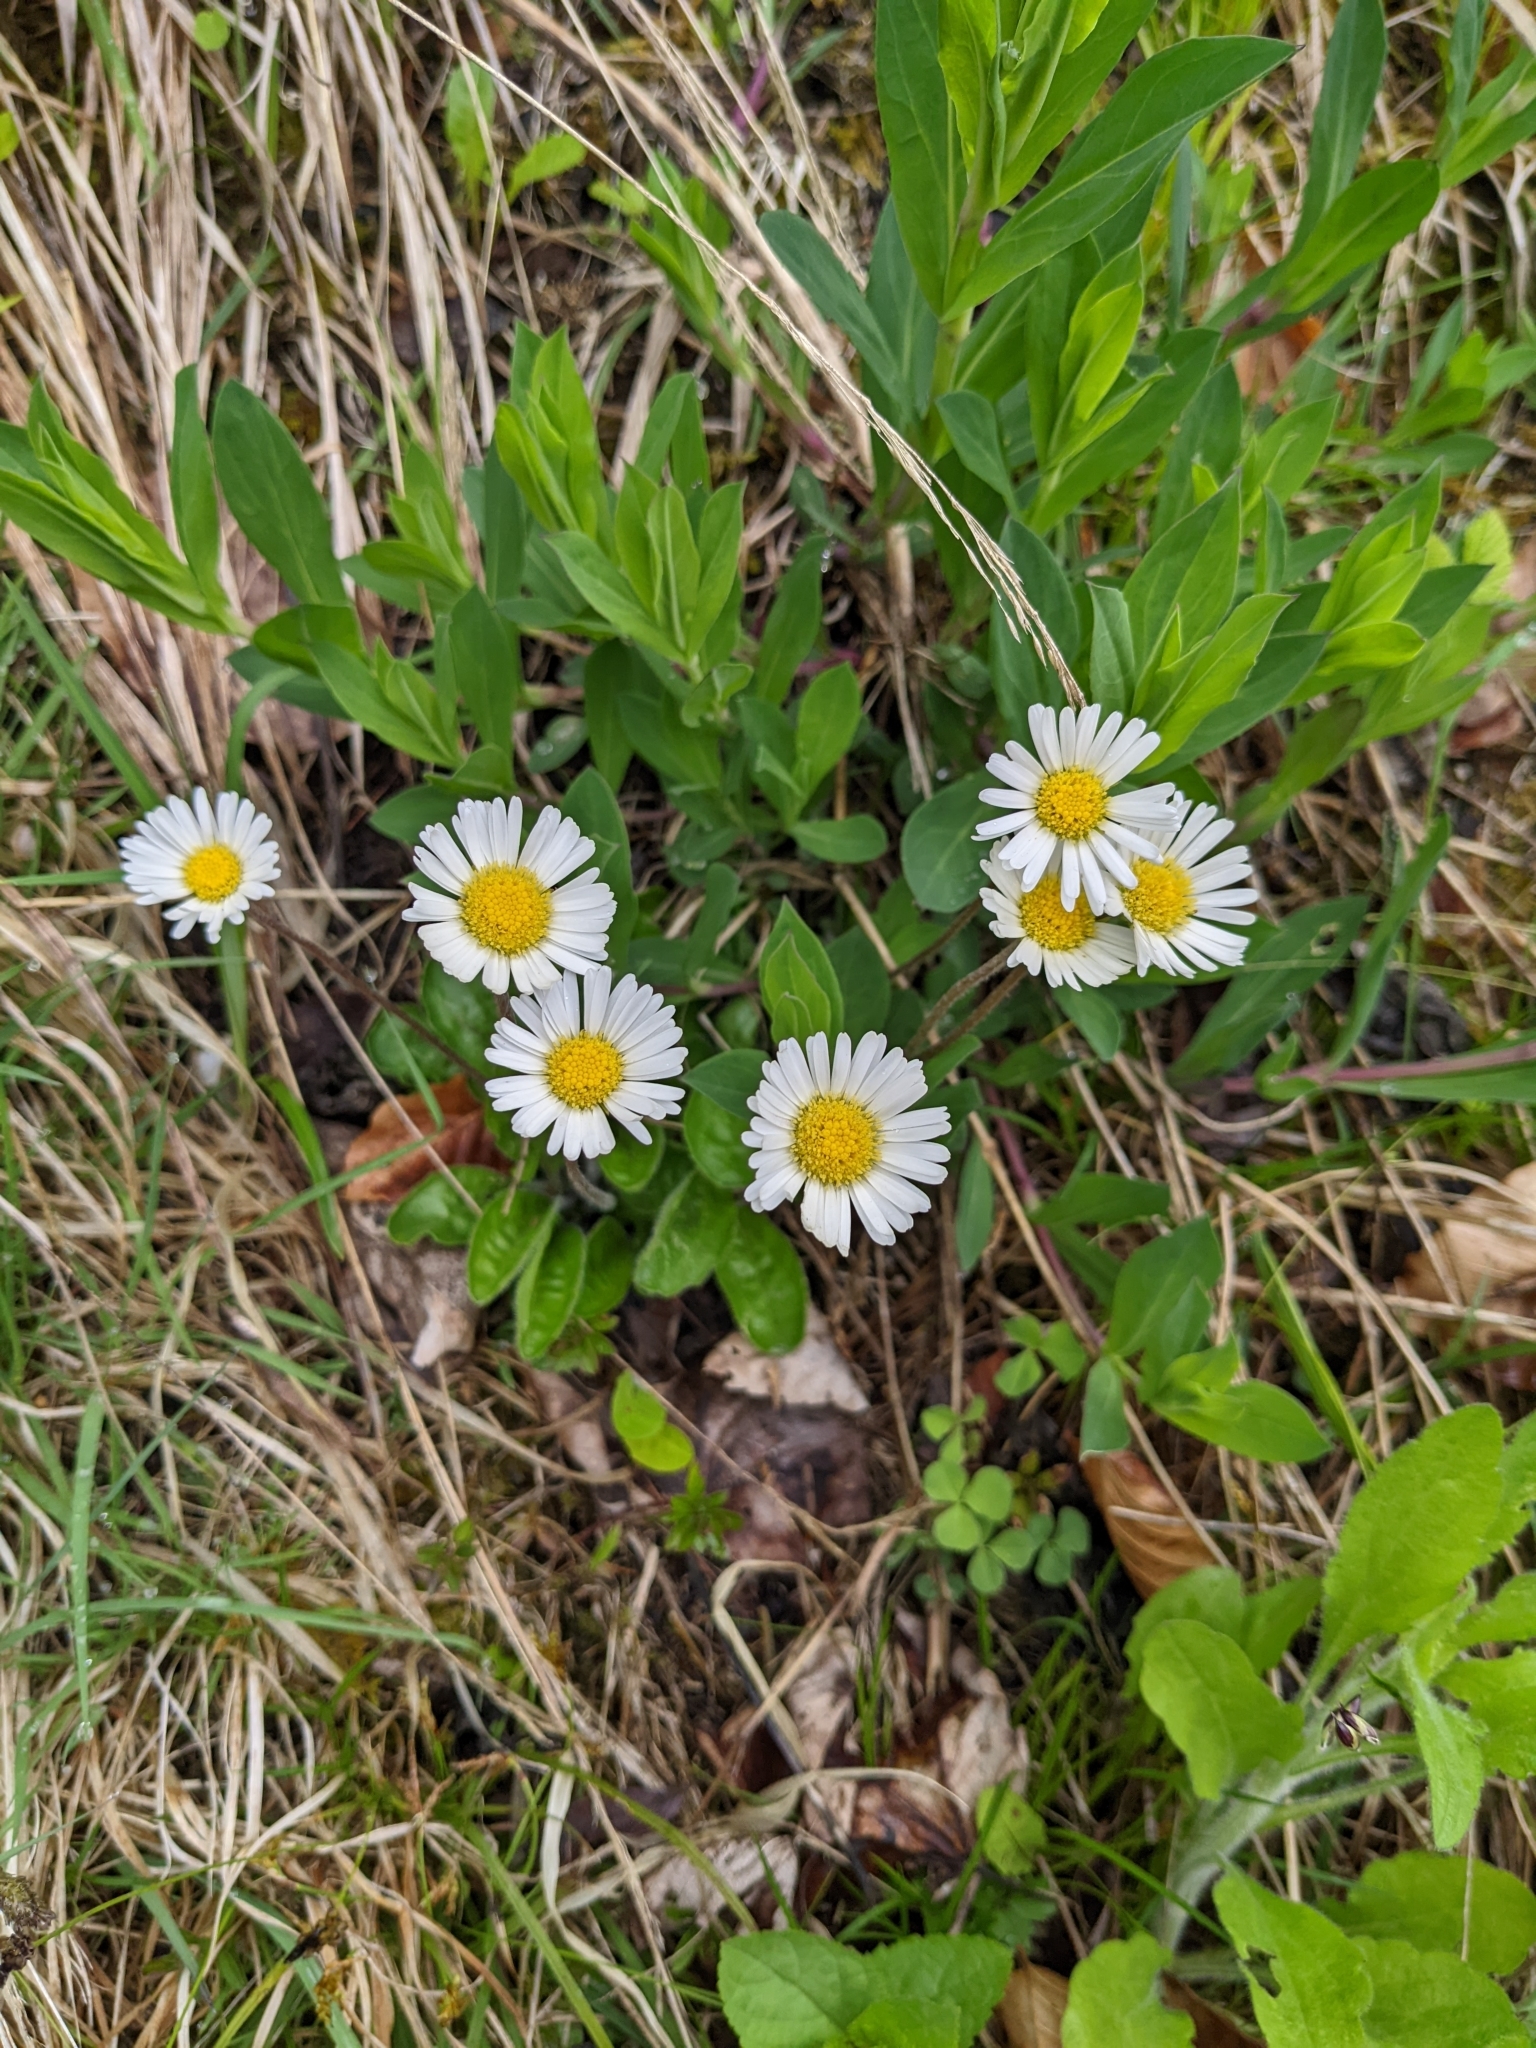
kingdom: Plantae
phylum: Tracheophyta
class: Magnoliopsida
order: Asterales
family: Asteraceae
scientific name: Asteraceae
